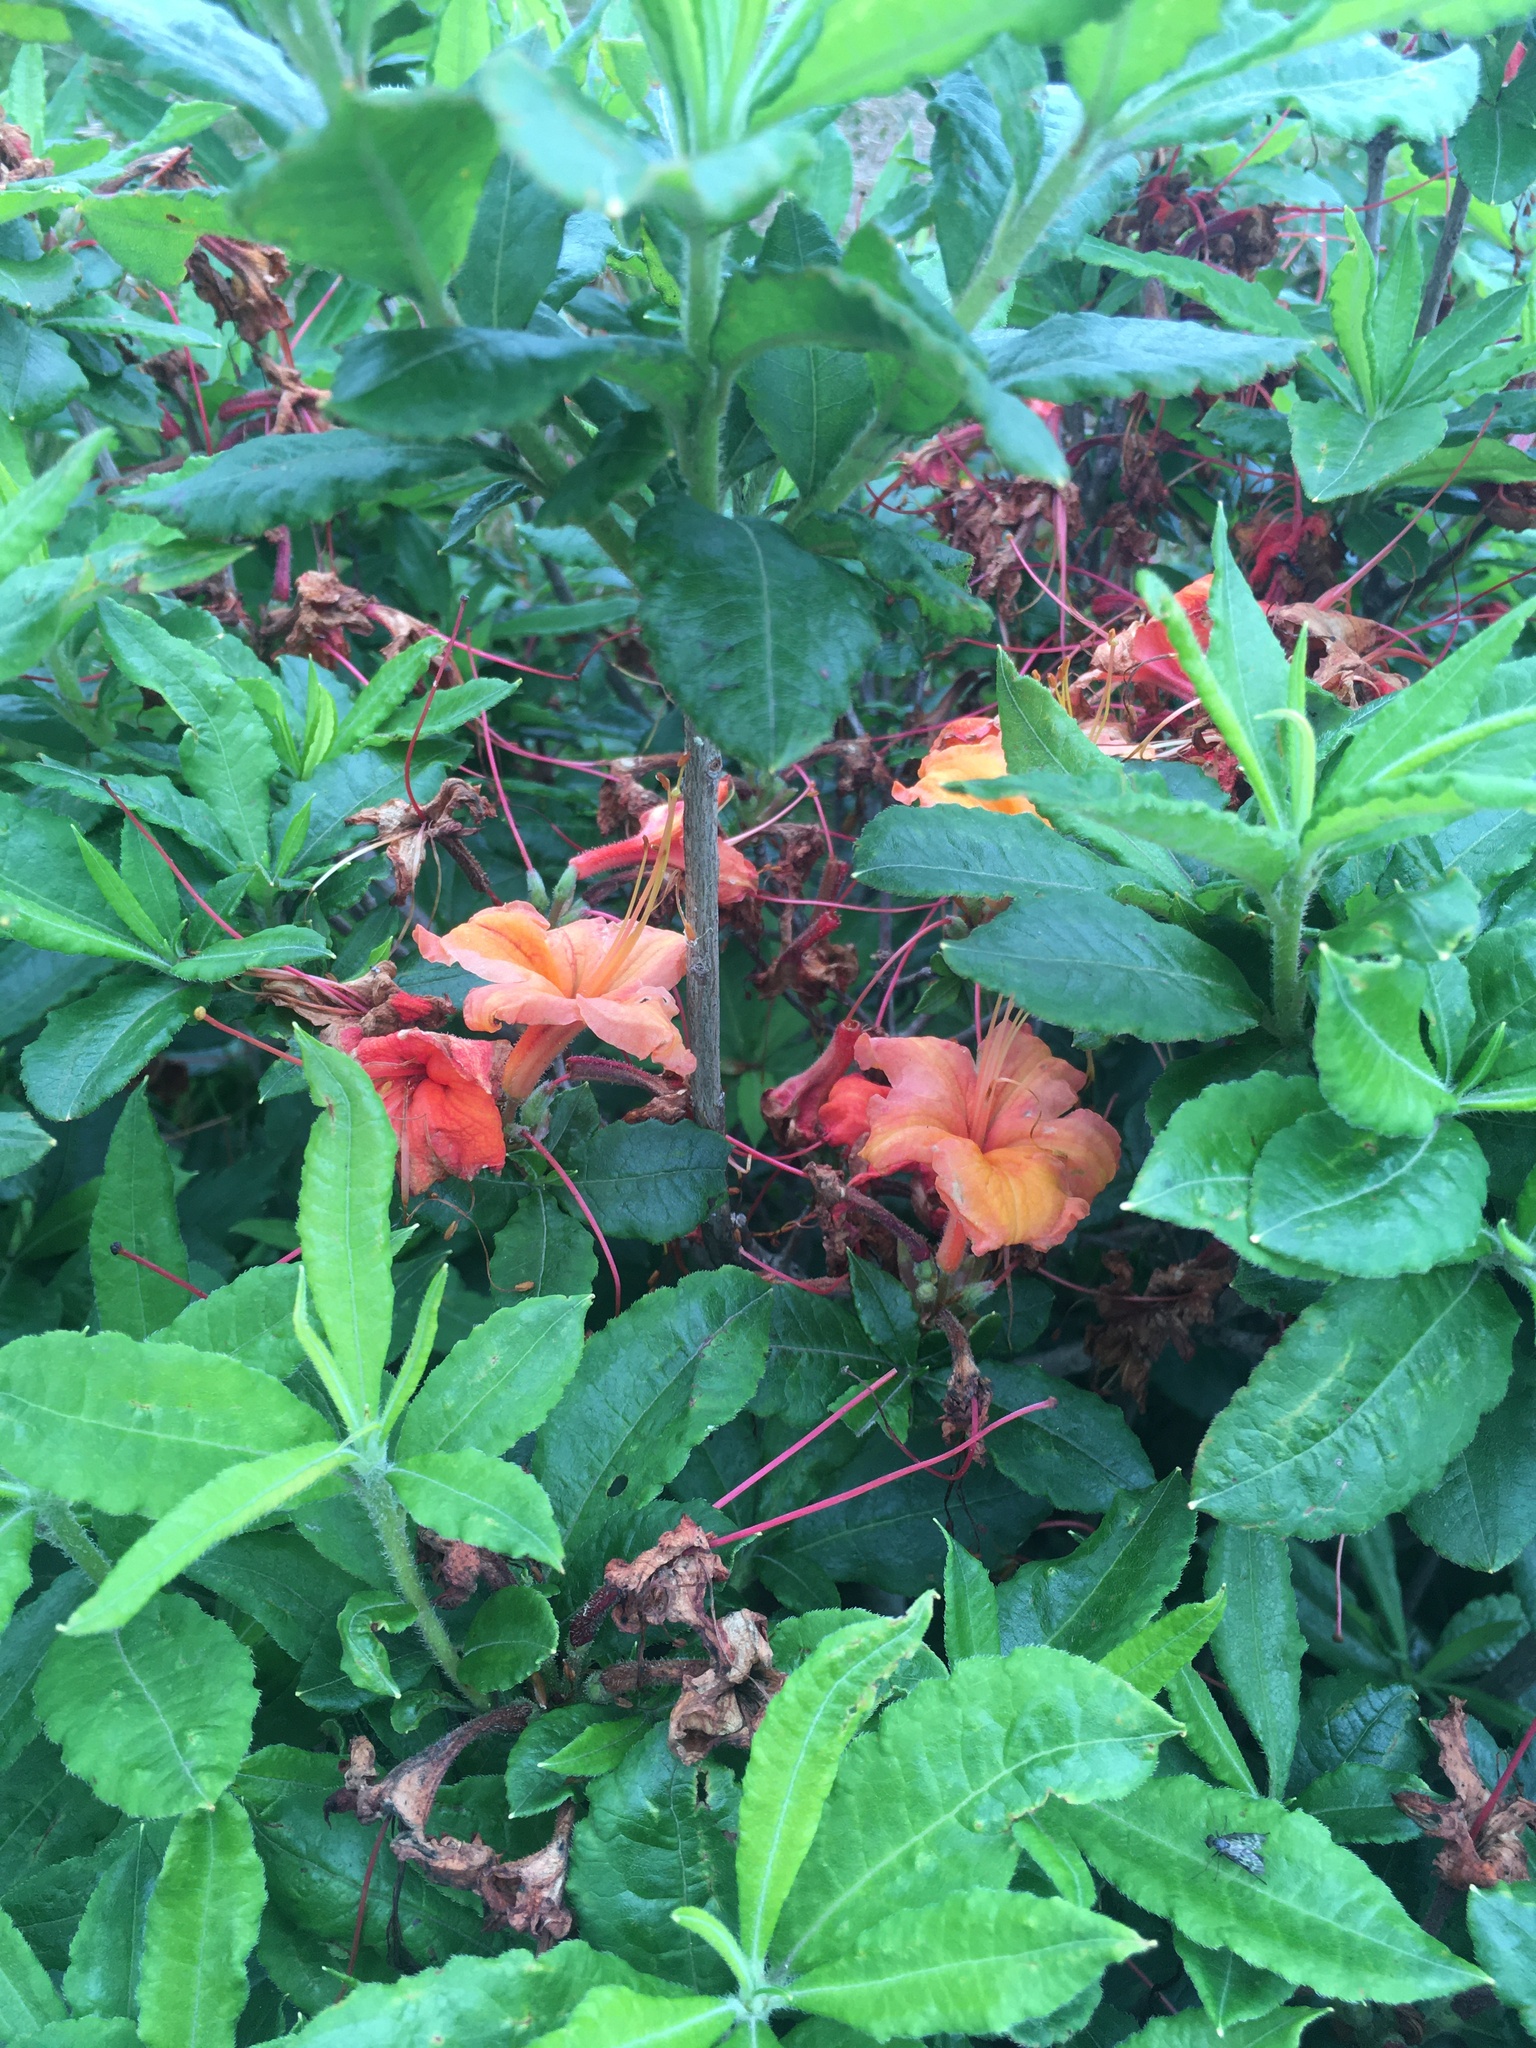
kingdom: Plantae
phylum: Tracheophyta
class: Magnoliopsida
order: Ericales
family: Ericaceae
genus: Rhododendron
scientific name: Rhododendron calendulaceum
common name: Flame azalea
